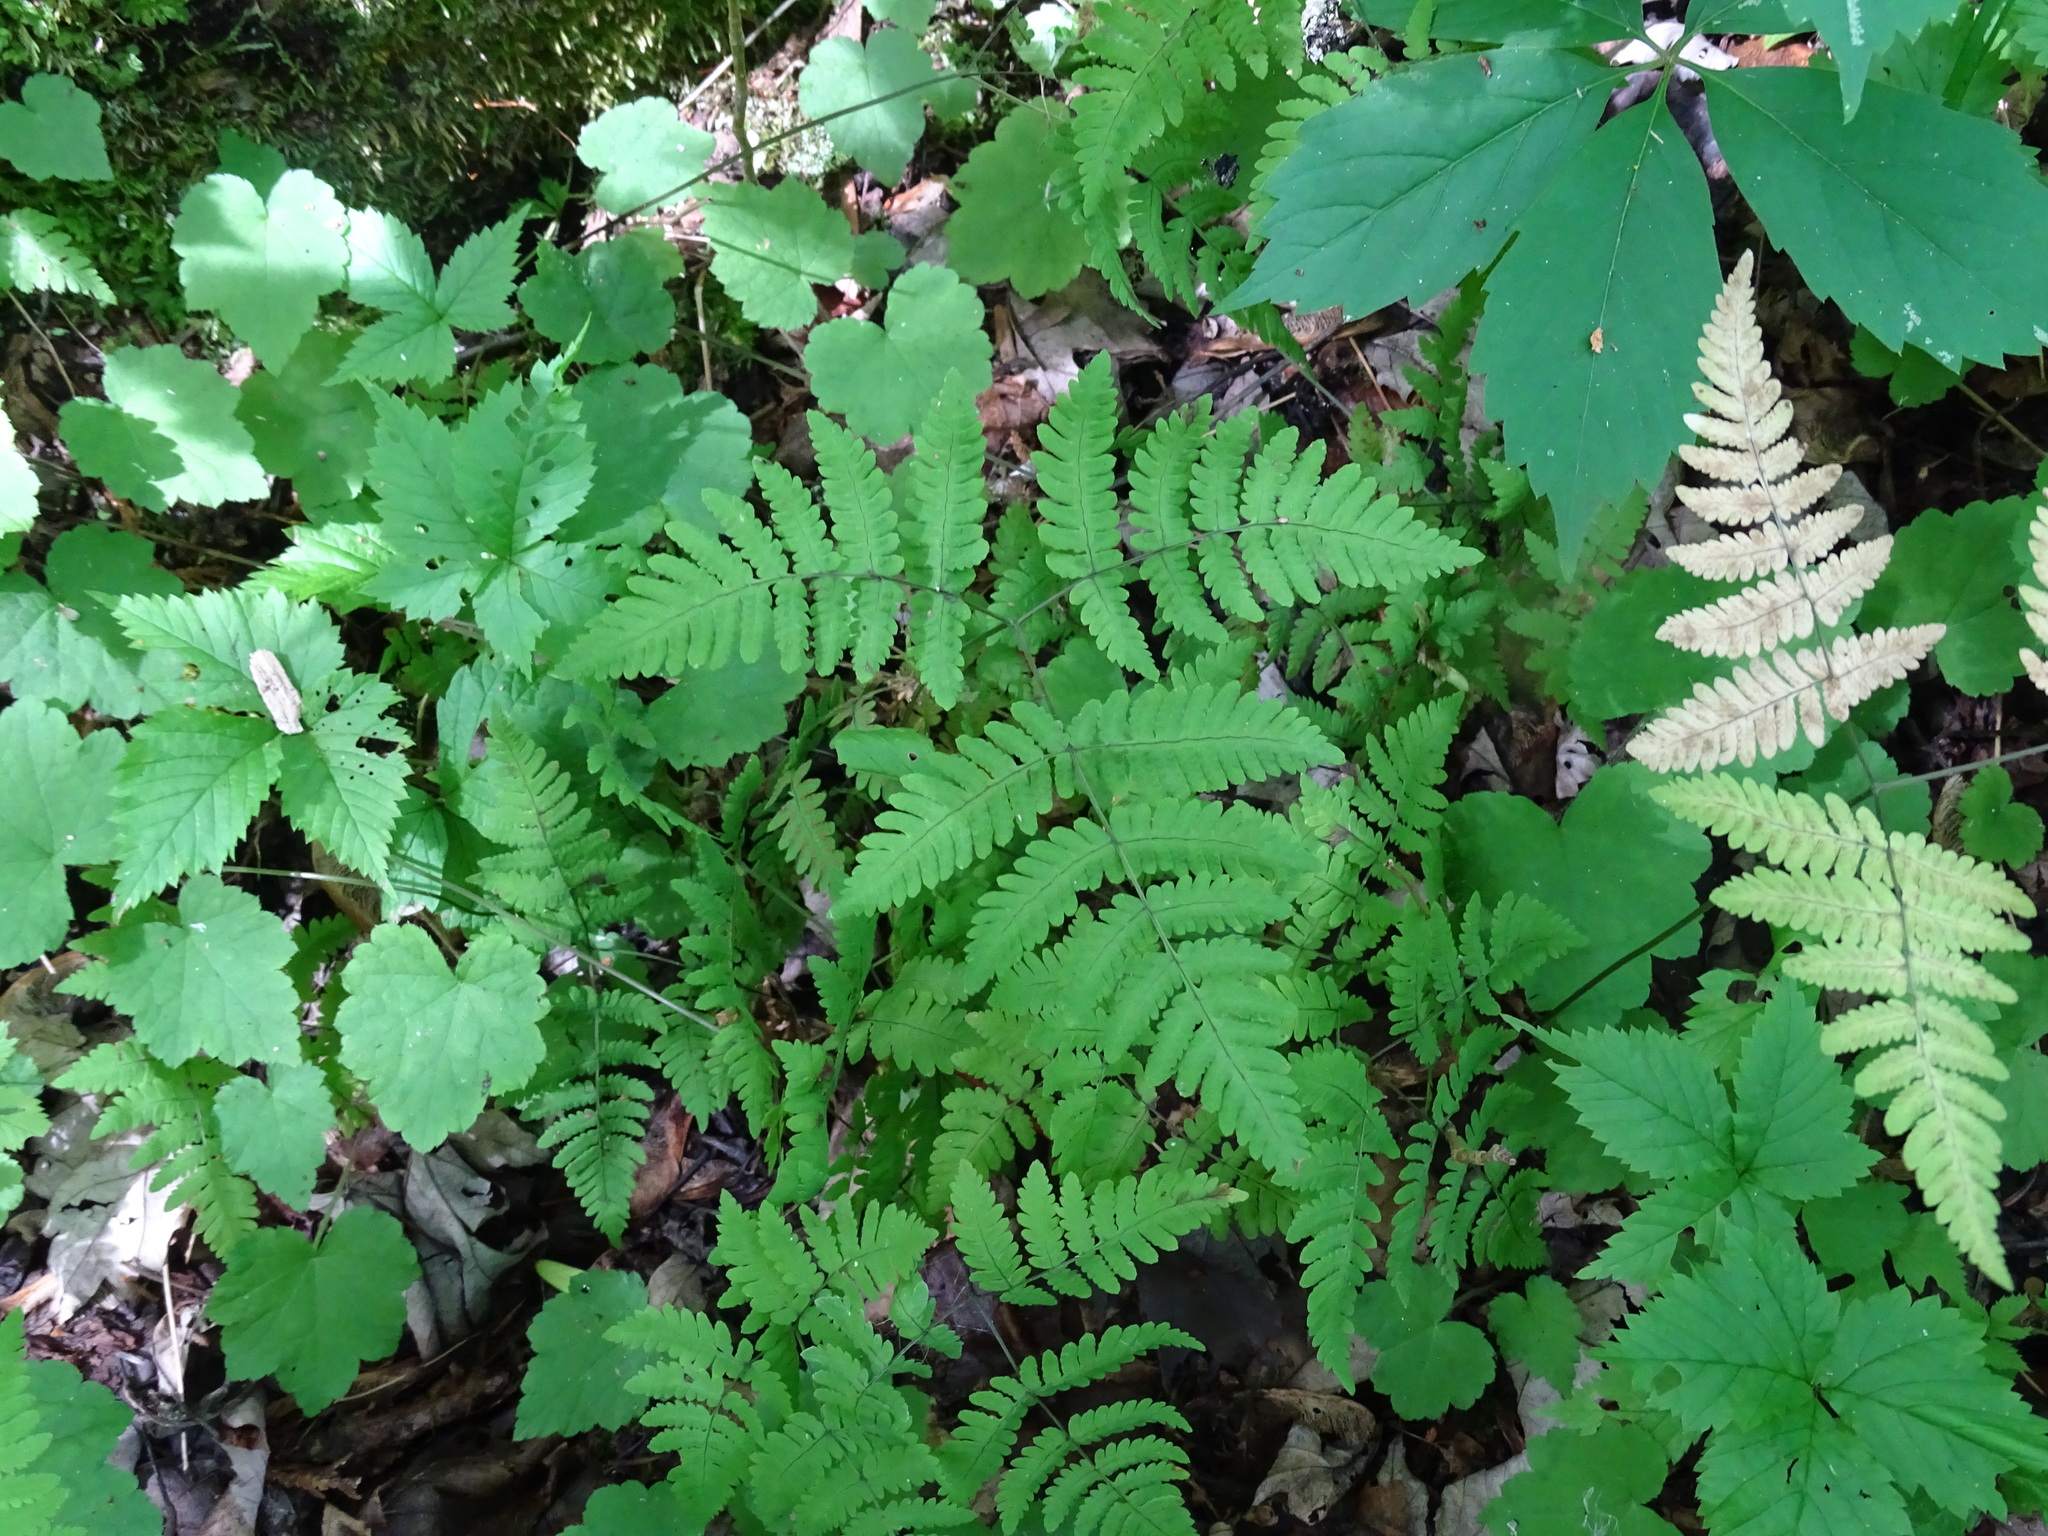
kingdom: Plantae
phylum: Tracheophyta
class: Polypodiopsida
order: Polypodiales
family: Cystopteridaceae
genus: Gymnocarpium
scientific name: Gymnocarpium dryopteris
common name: Oak fern
